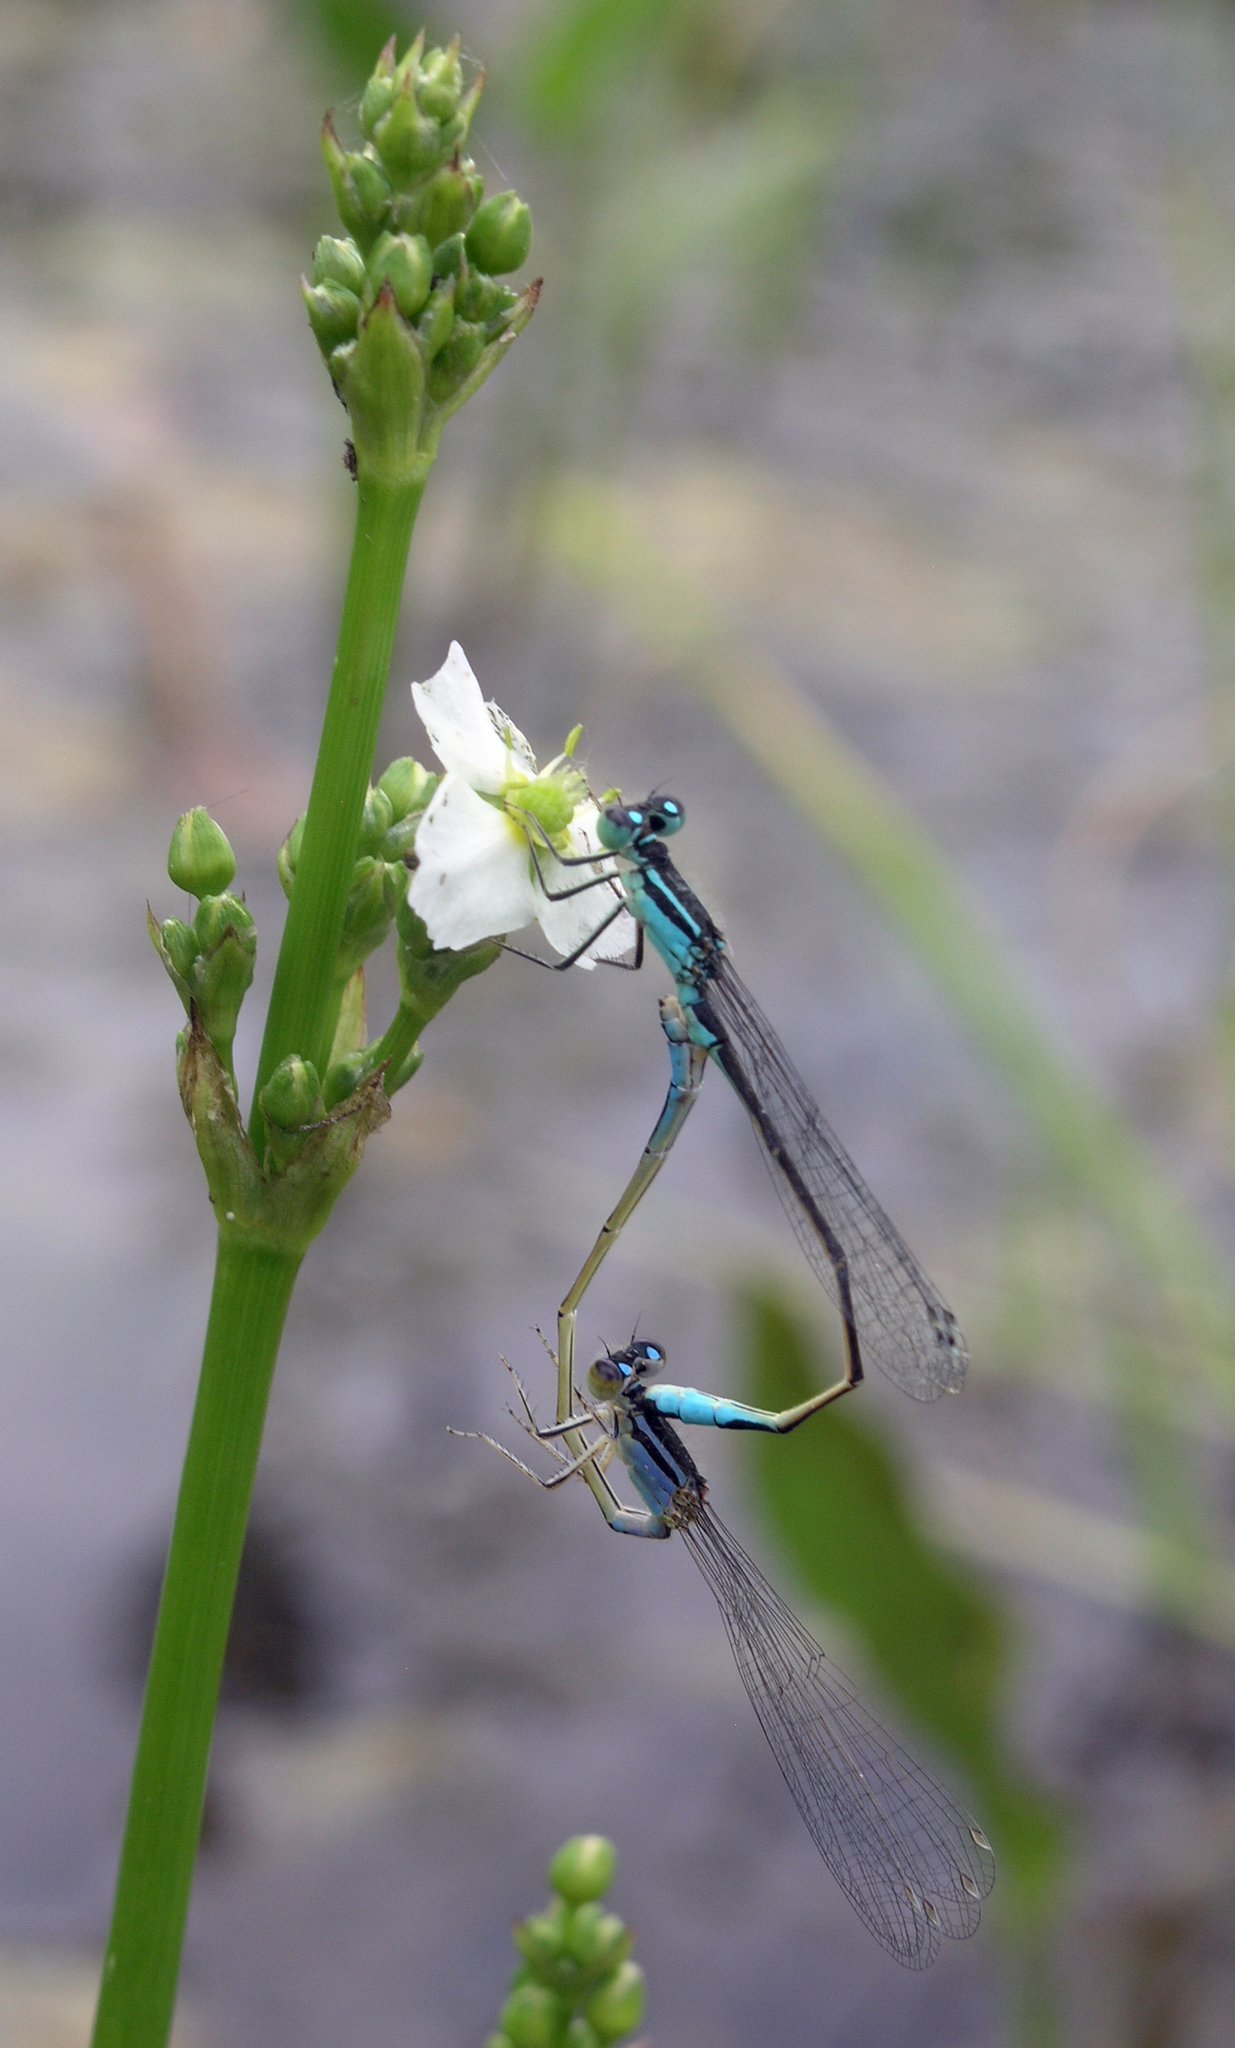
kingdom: Animalia
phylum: Arthropoda
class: Insecta
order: Odonata
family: Coenagrionidae
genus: Ischnura
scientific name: Ischnura elegans
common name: Blue-tailed damselfly
